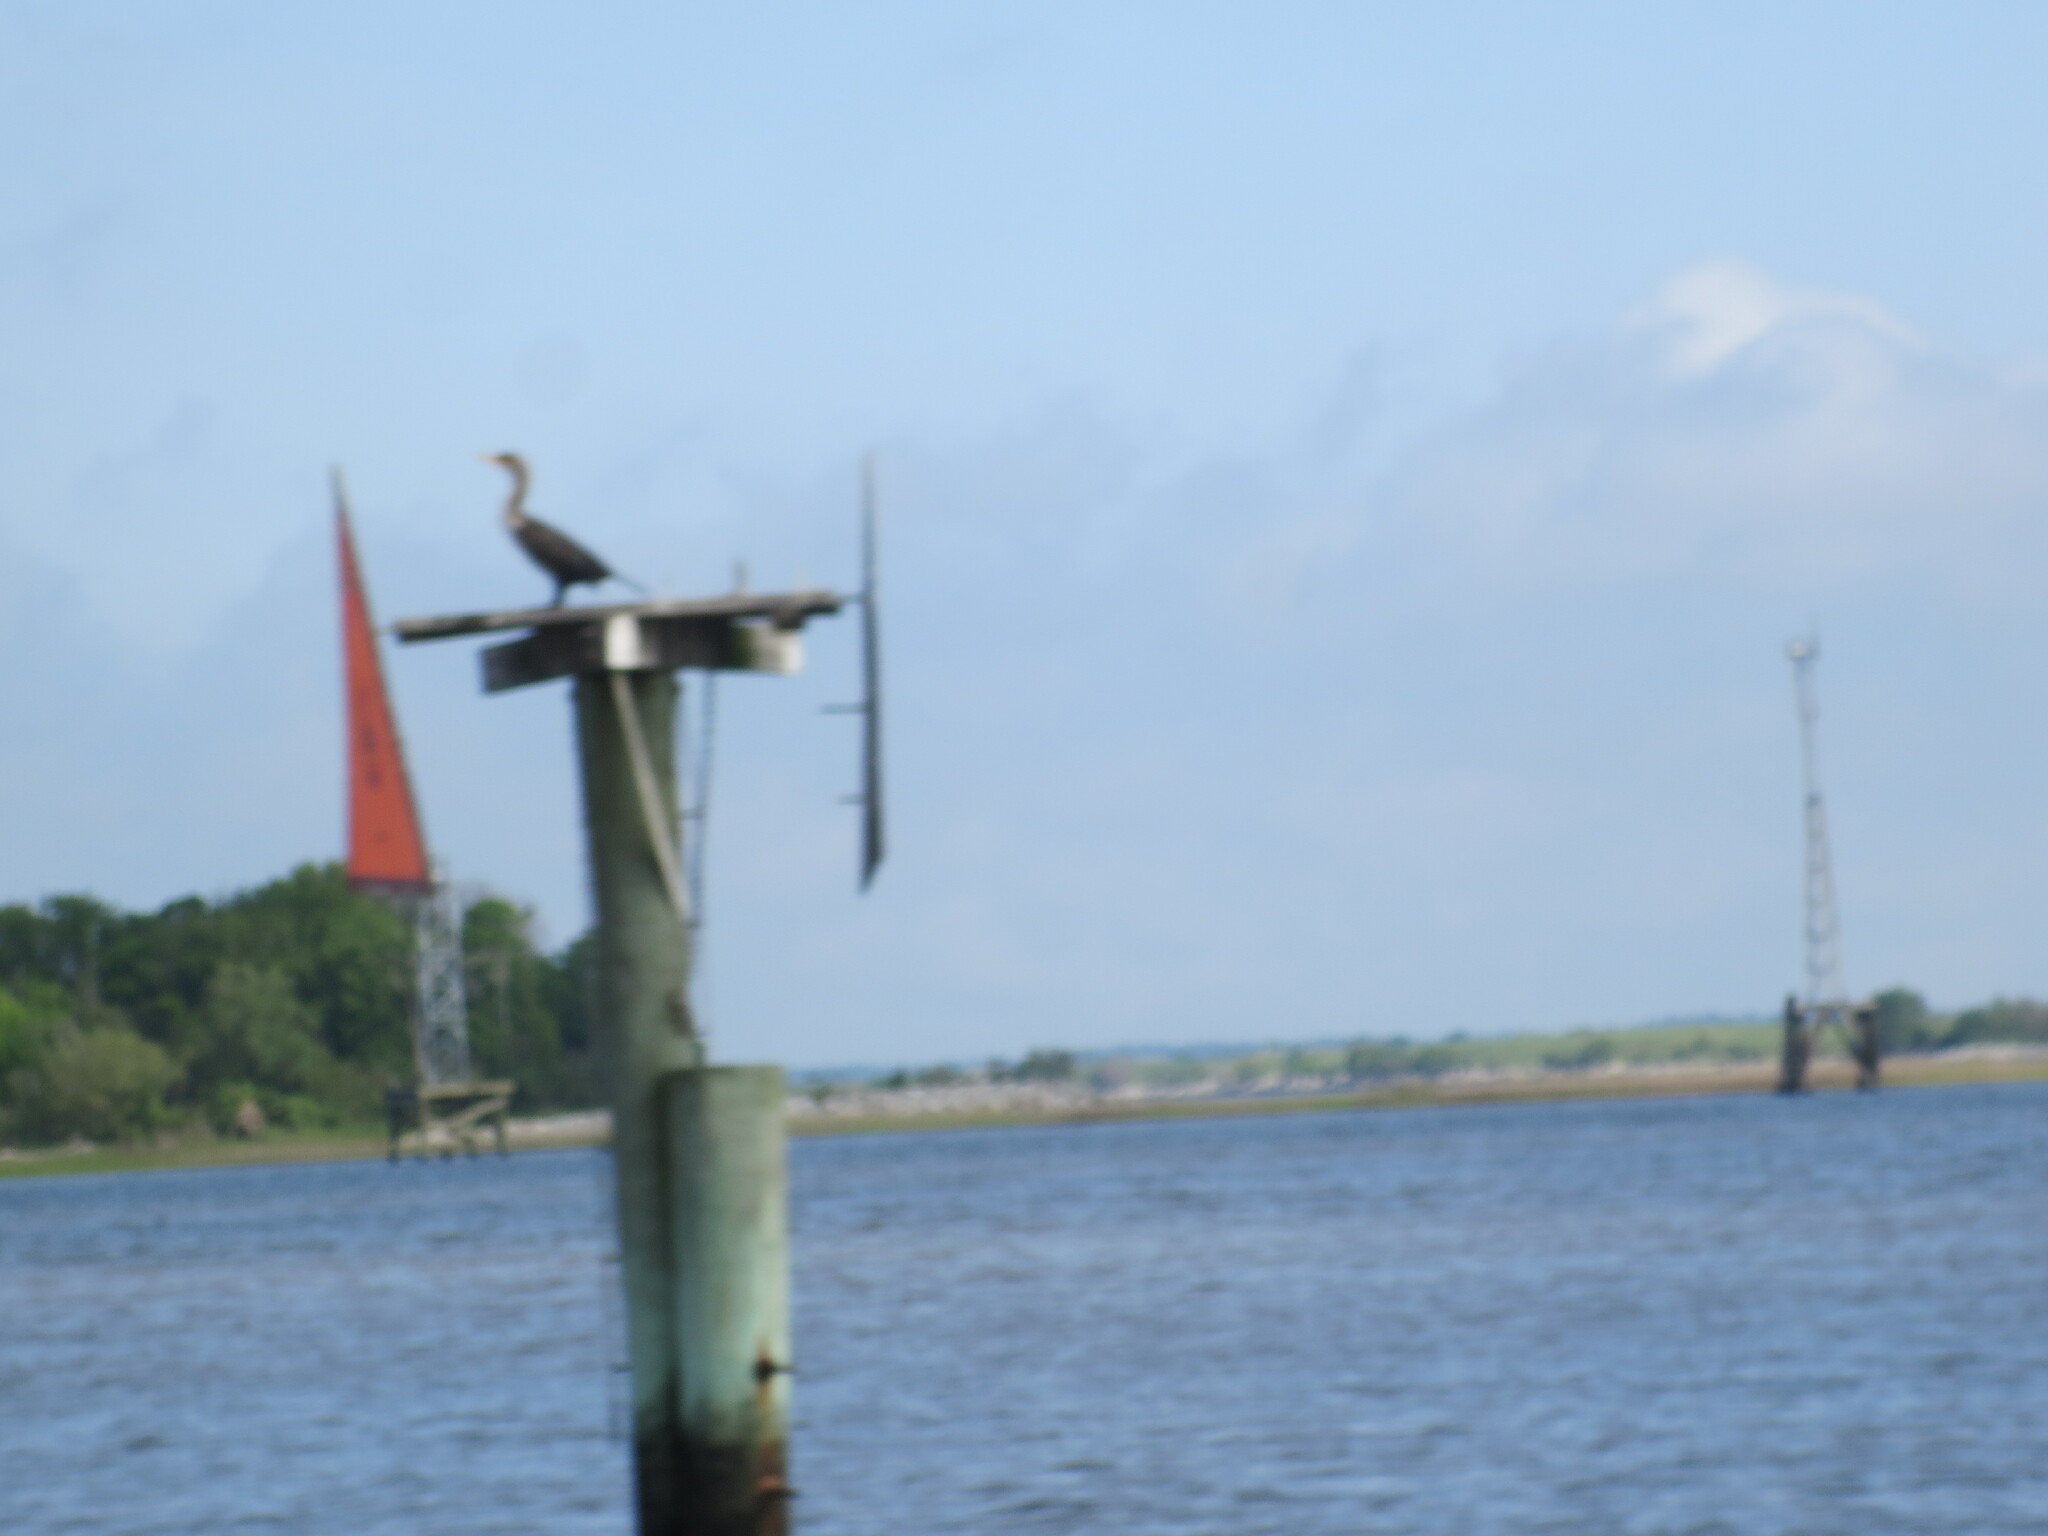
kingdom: Animalia
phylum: Chordata
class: Aves
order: Suliformes
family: Phalacrocoracidae
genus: Phalacrocorax
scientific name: Phalacrocorax auritus
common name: Double-crested cormorant
